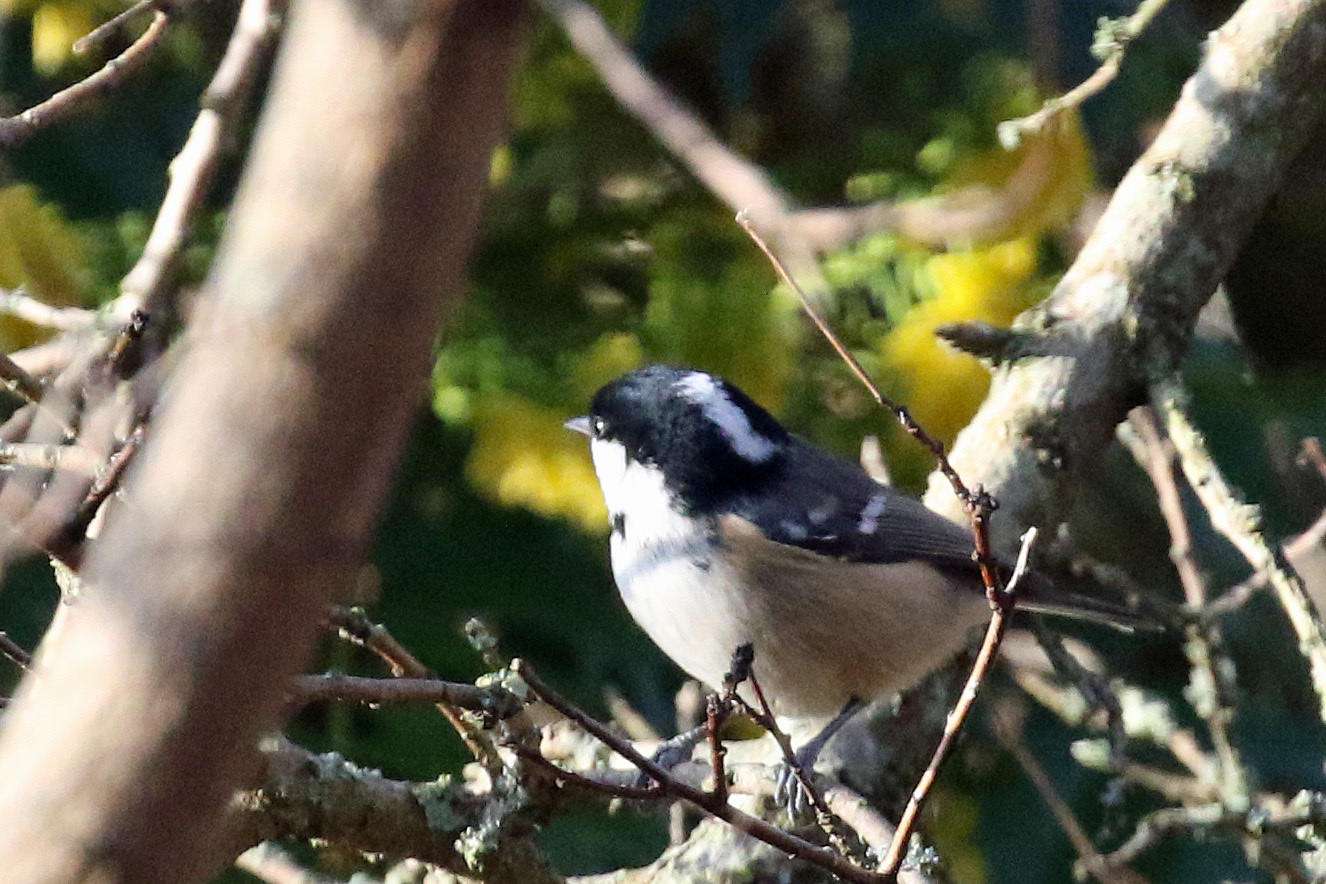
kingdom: Animalia
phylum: Chordata
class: Aves
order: Passeriformes
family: Paridae
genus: Periparus
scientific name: Periparus ater
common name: Coal tit
